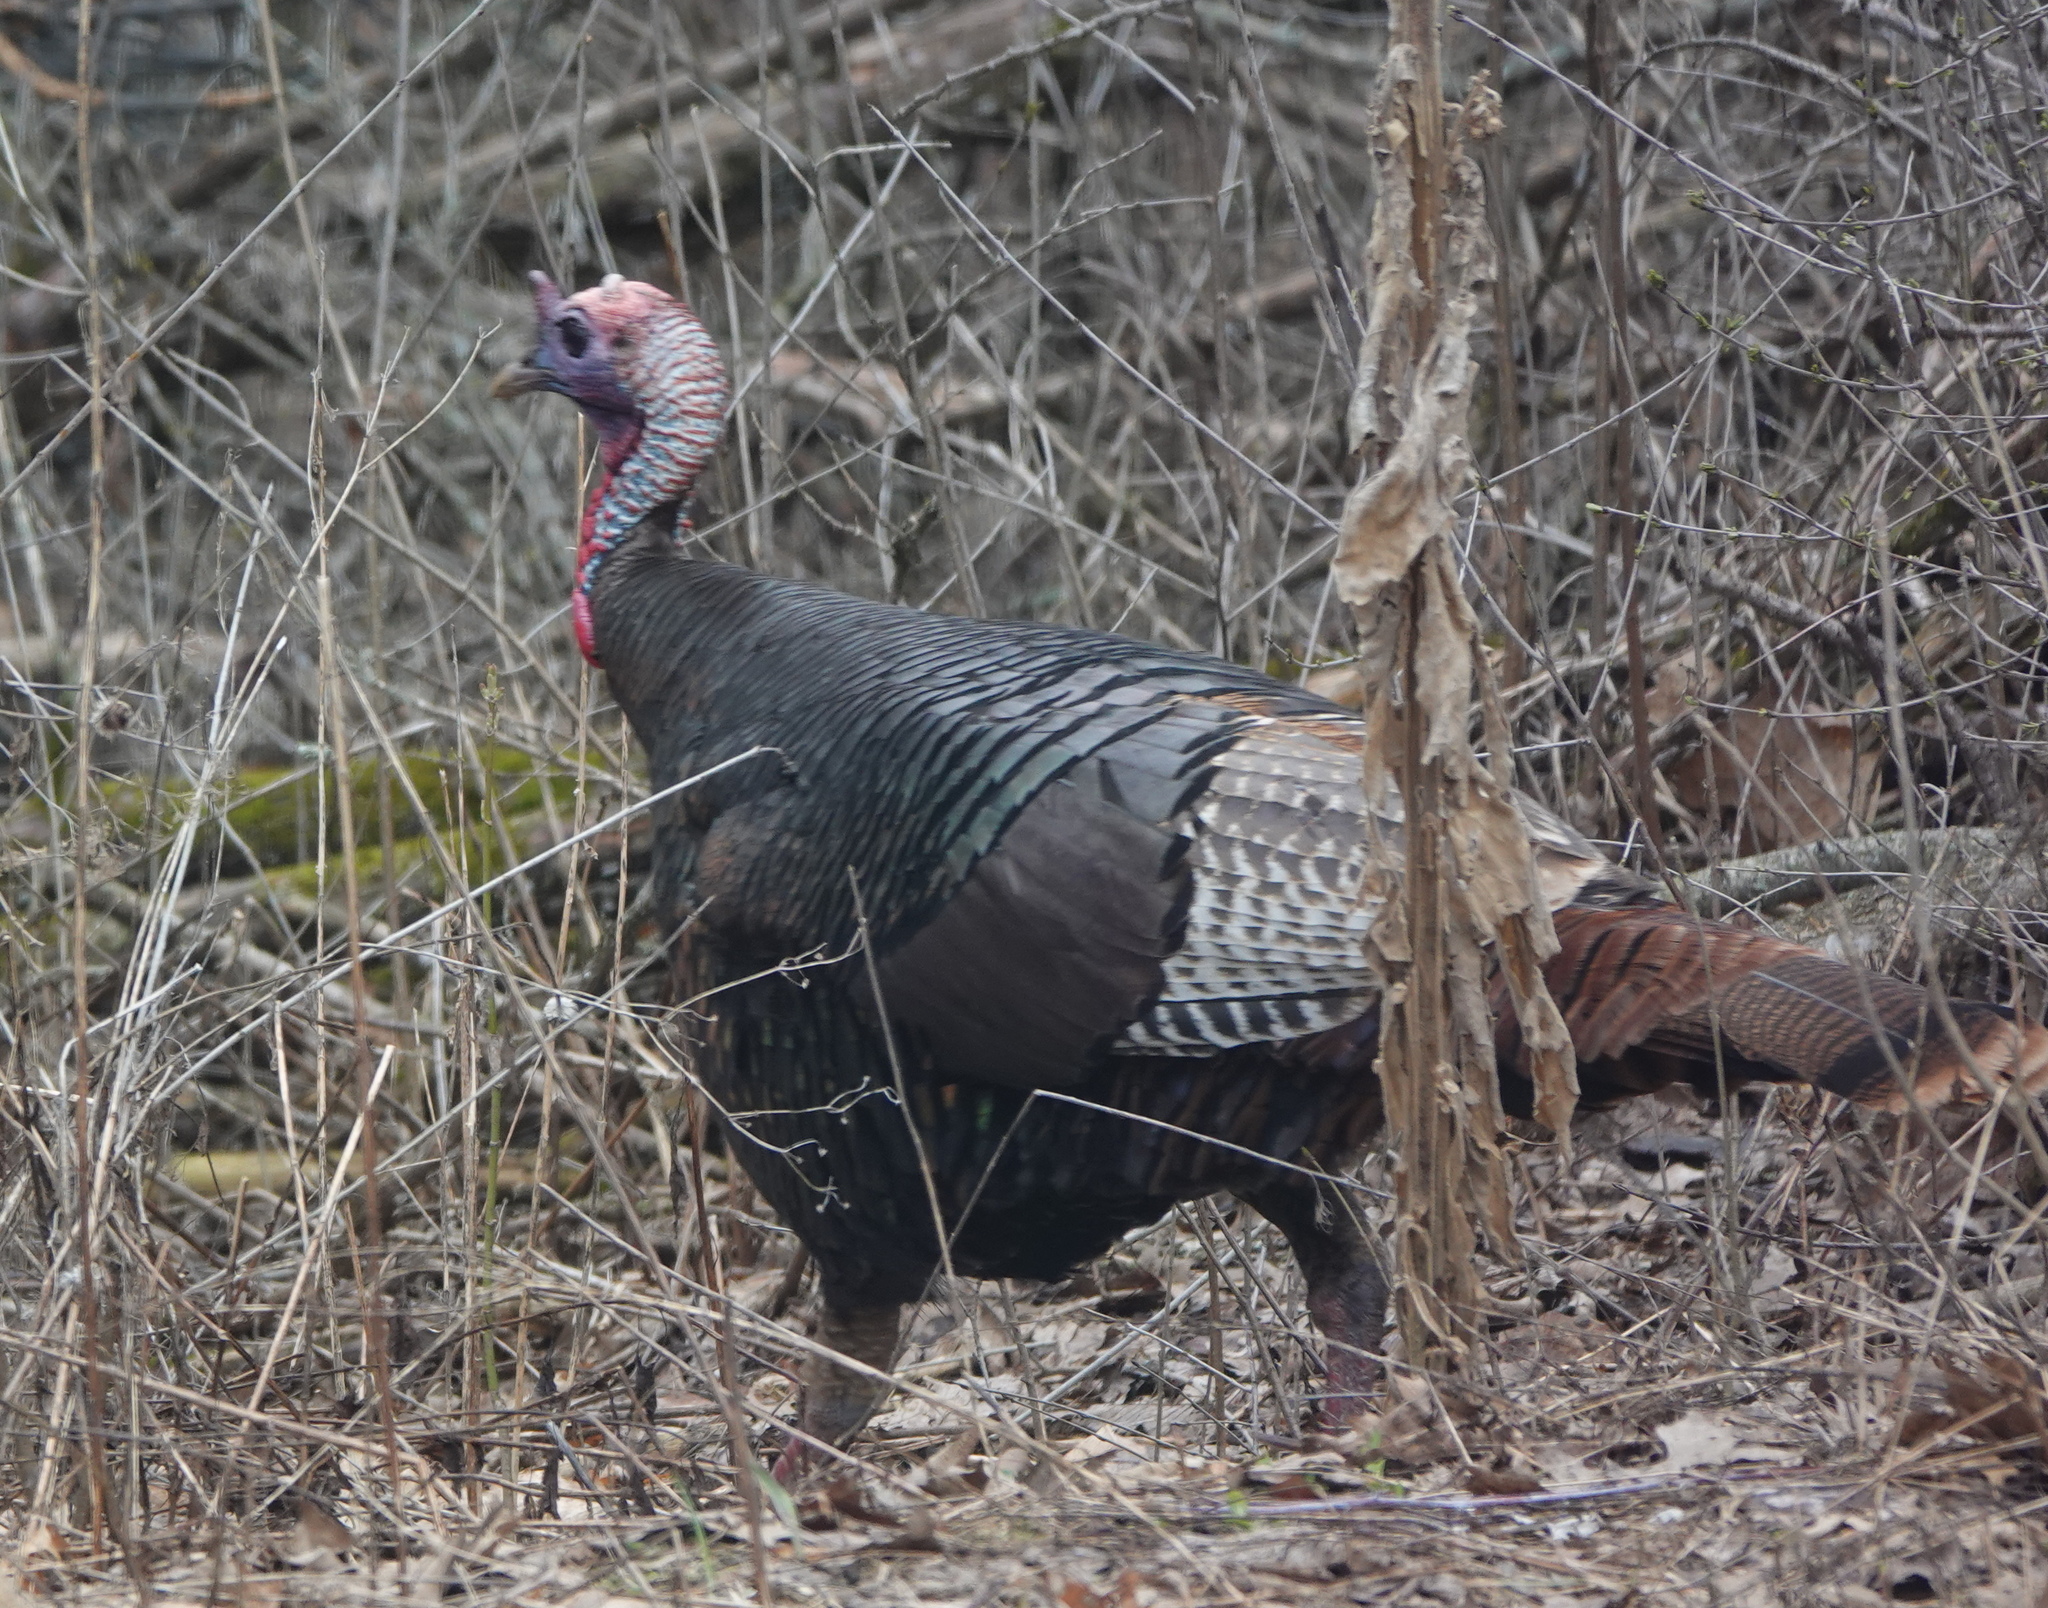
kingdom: Animalia
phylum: Chordata
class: Aves
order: Galliformes
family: Phasianidae
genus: Meleagris
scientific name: Meleagris gallopavo
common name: Wild turkey
